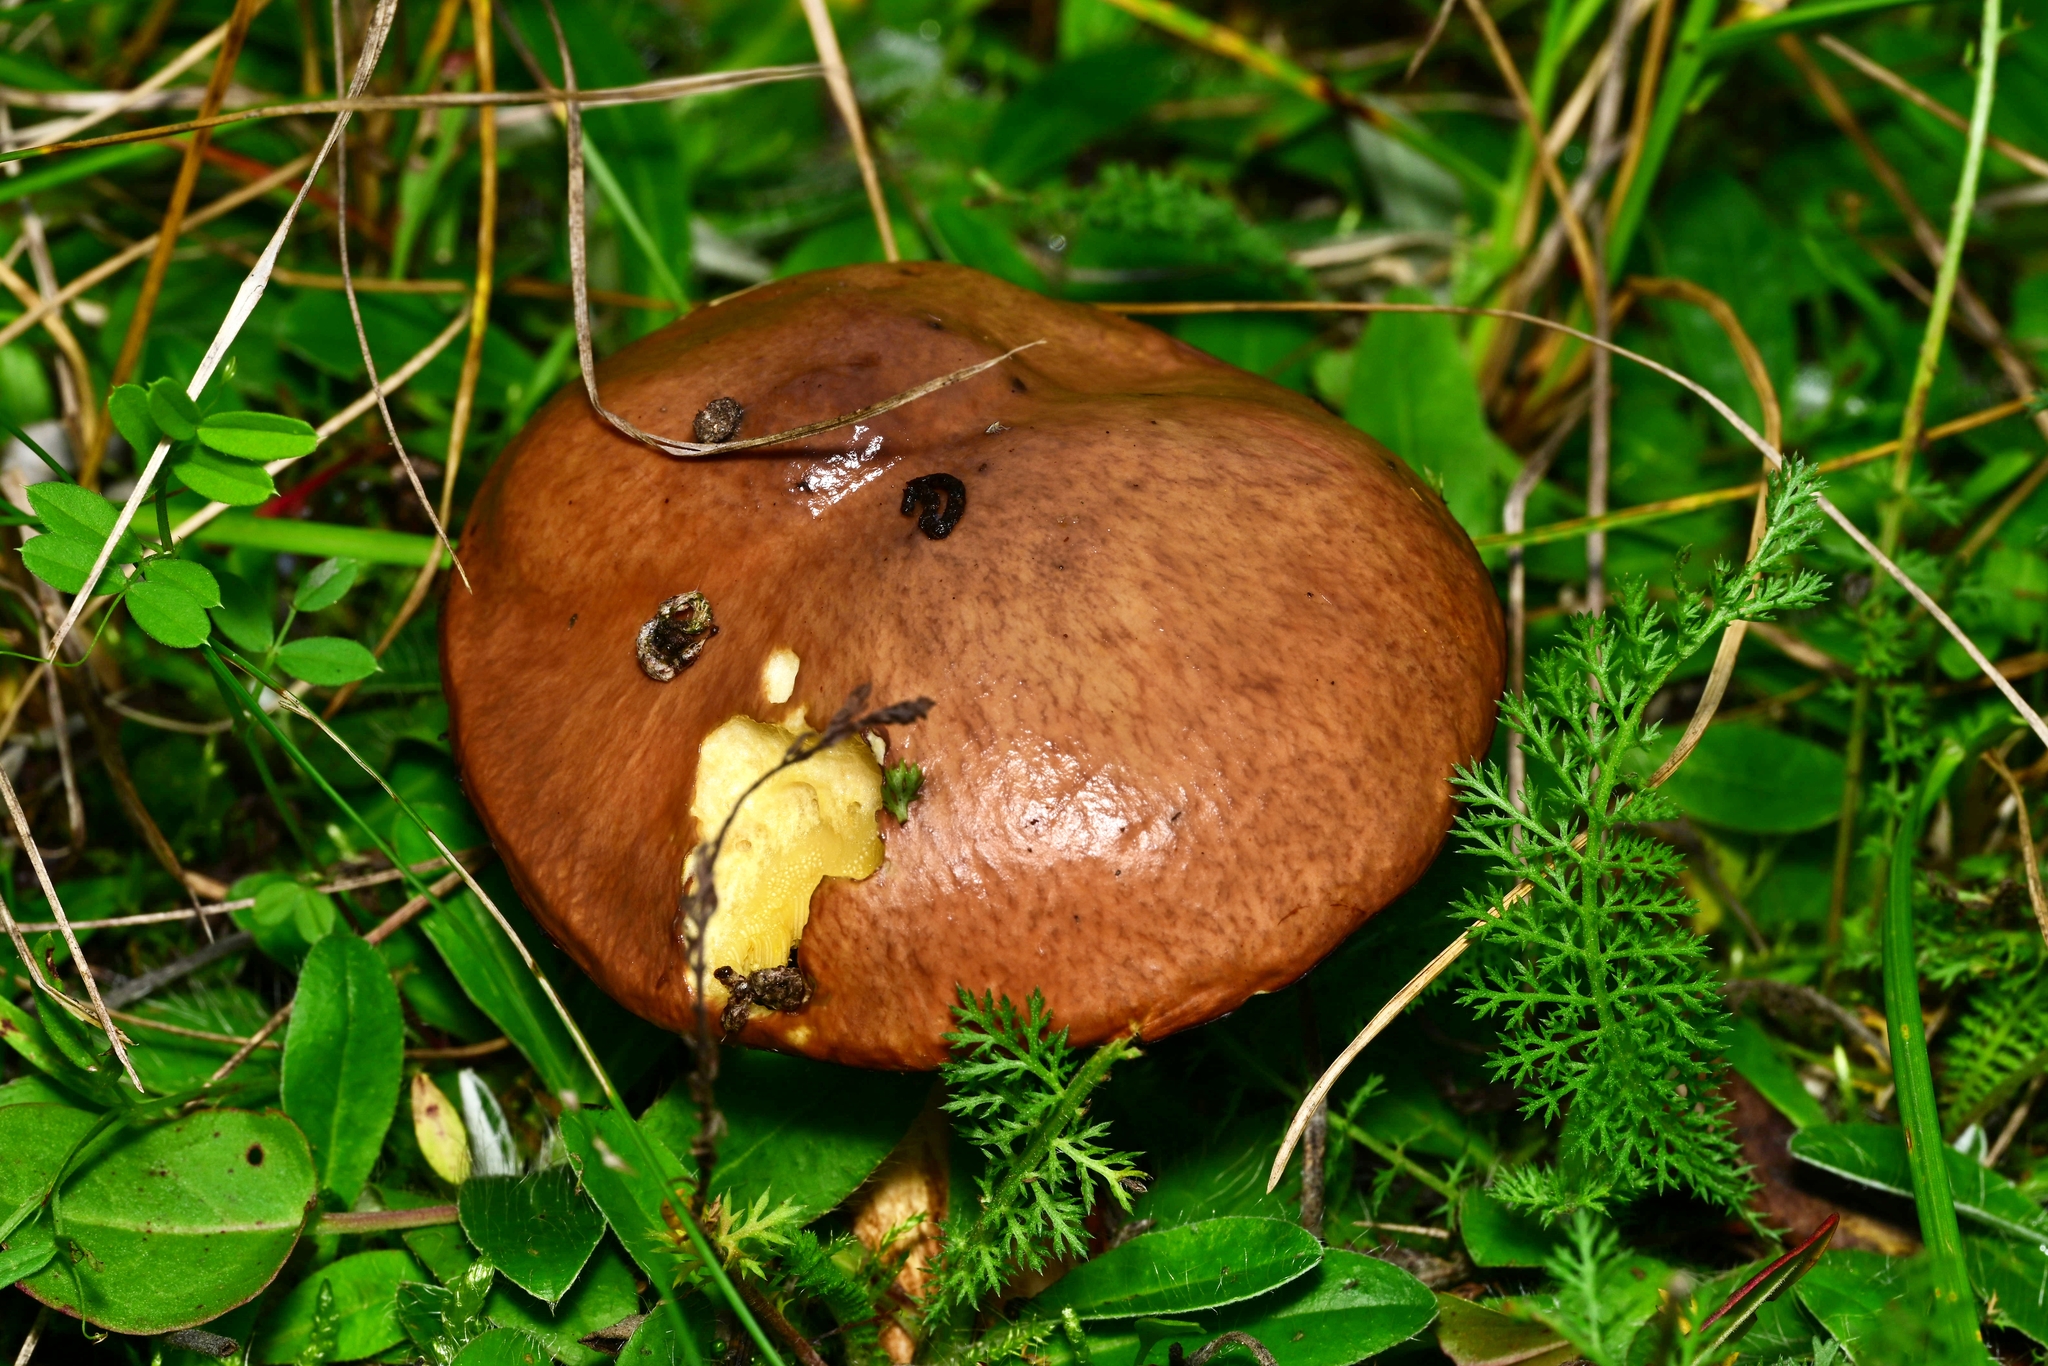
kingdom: Fungi
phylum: Basidiomycota
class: Agaricomycetes
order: Boletales
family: Suillaceae
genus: Suillus
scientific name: Suillus luteus
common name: Slippery jack
